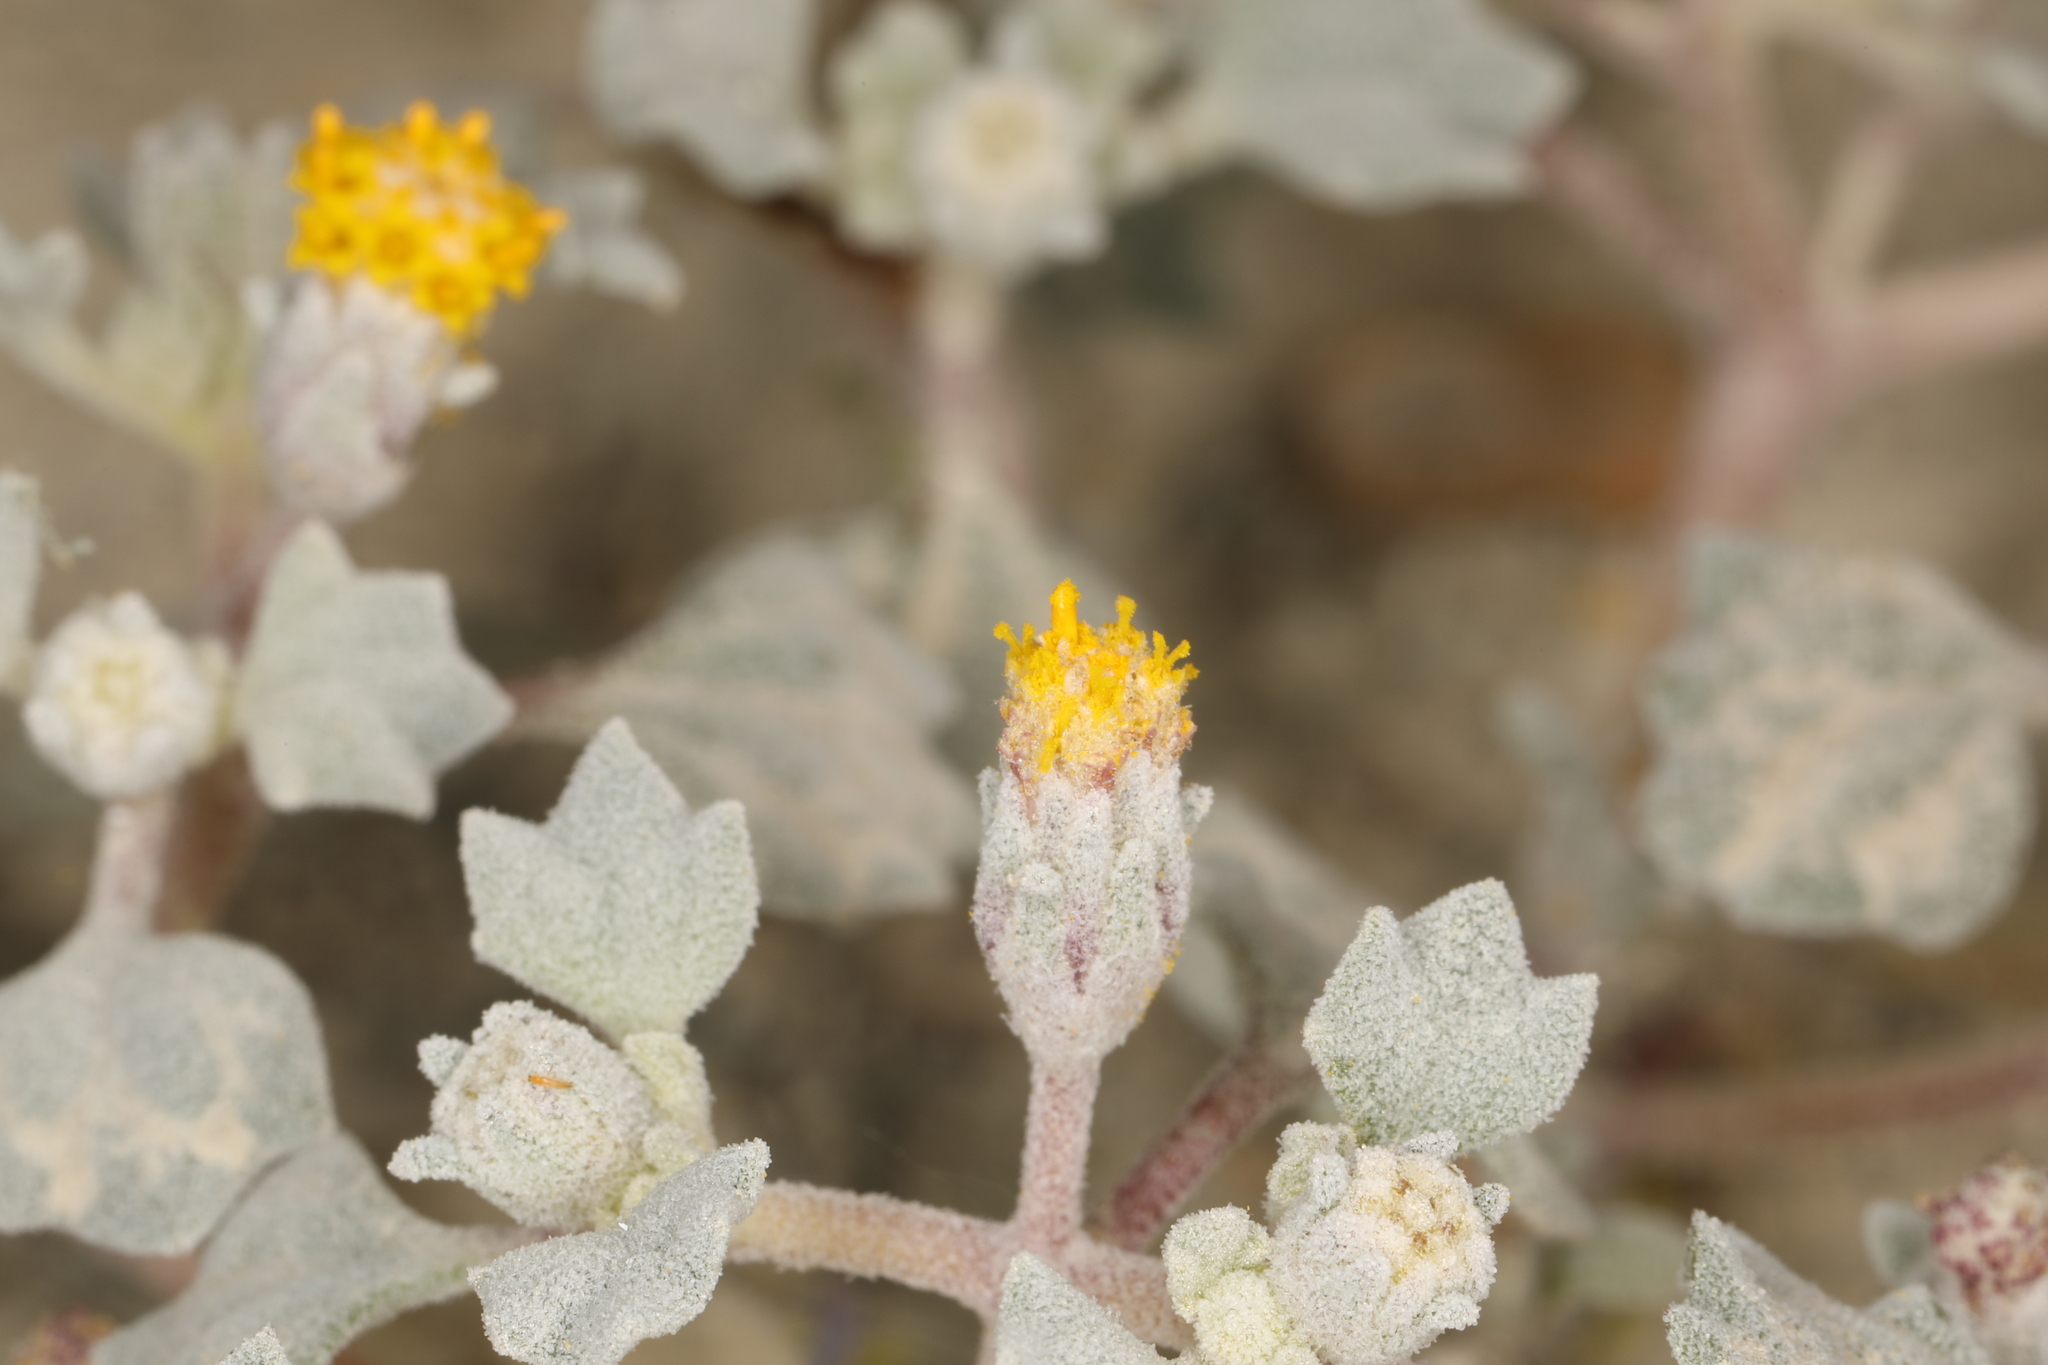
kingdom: Plantae
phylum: Tracheophyta
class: Magnoliopsida
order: Asterales
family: Asteraceae
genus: Psathyrotes
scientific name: Psathyrotes annua
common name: Mealy rosettes
